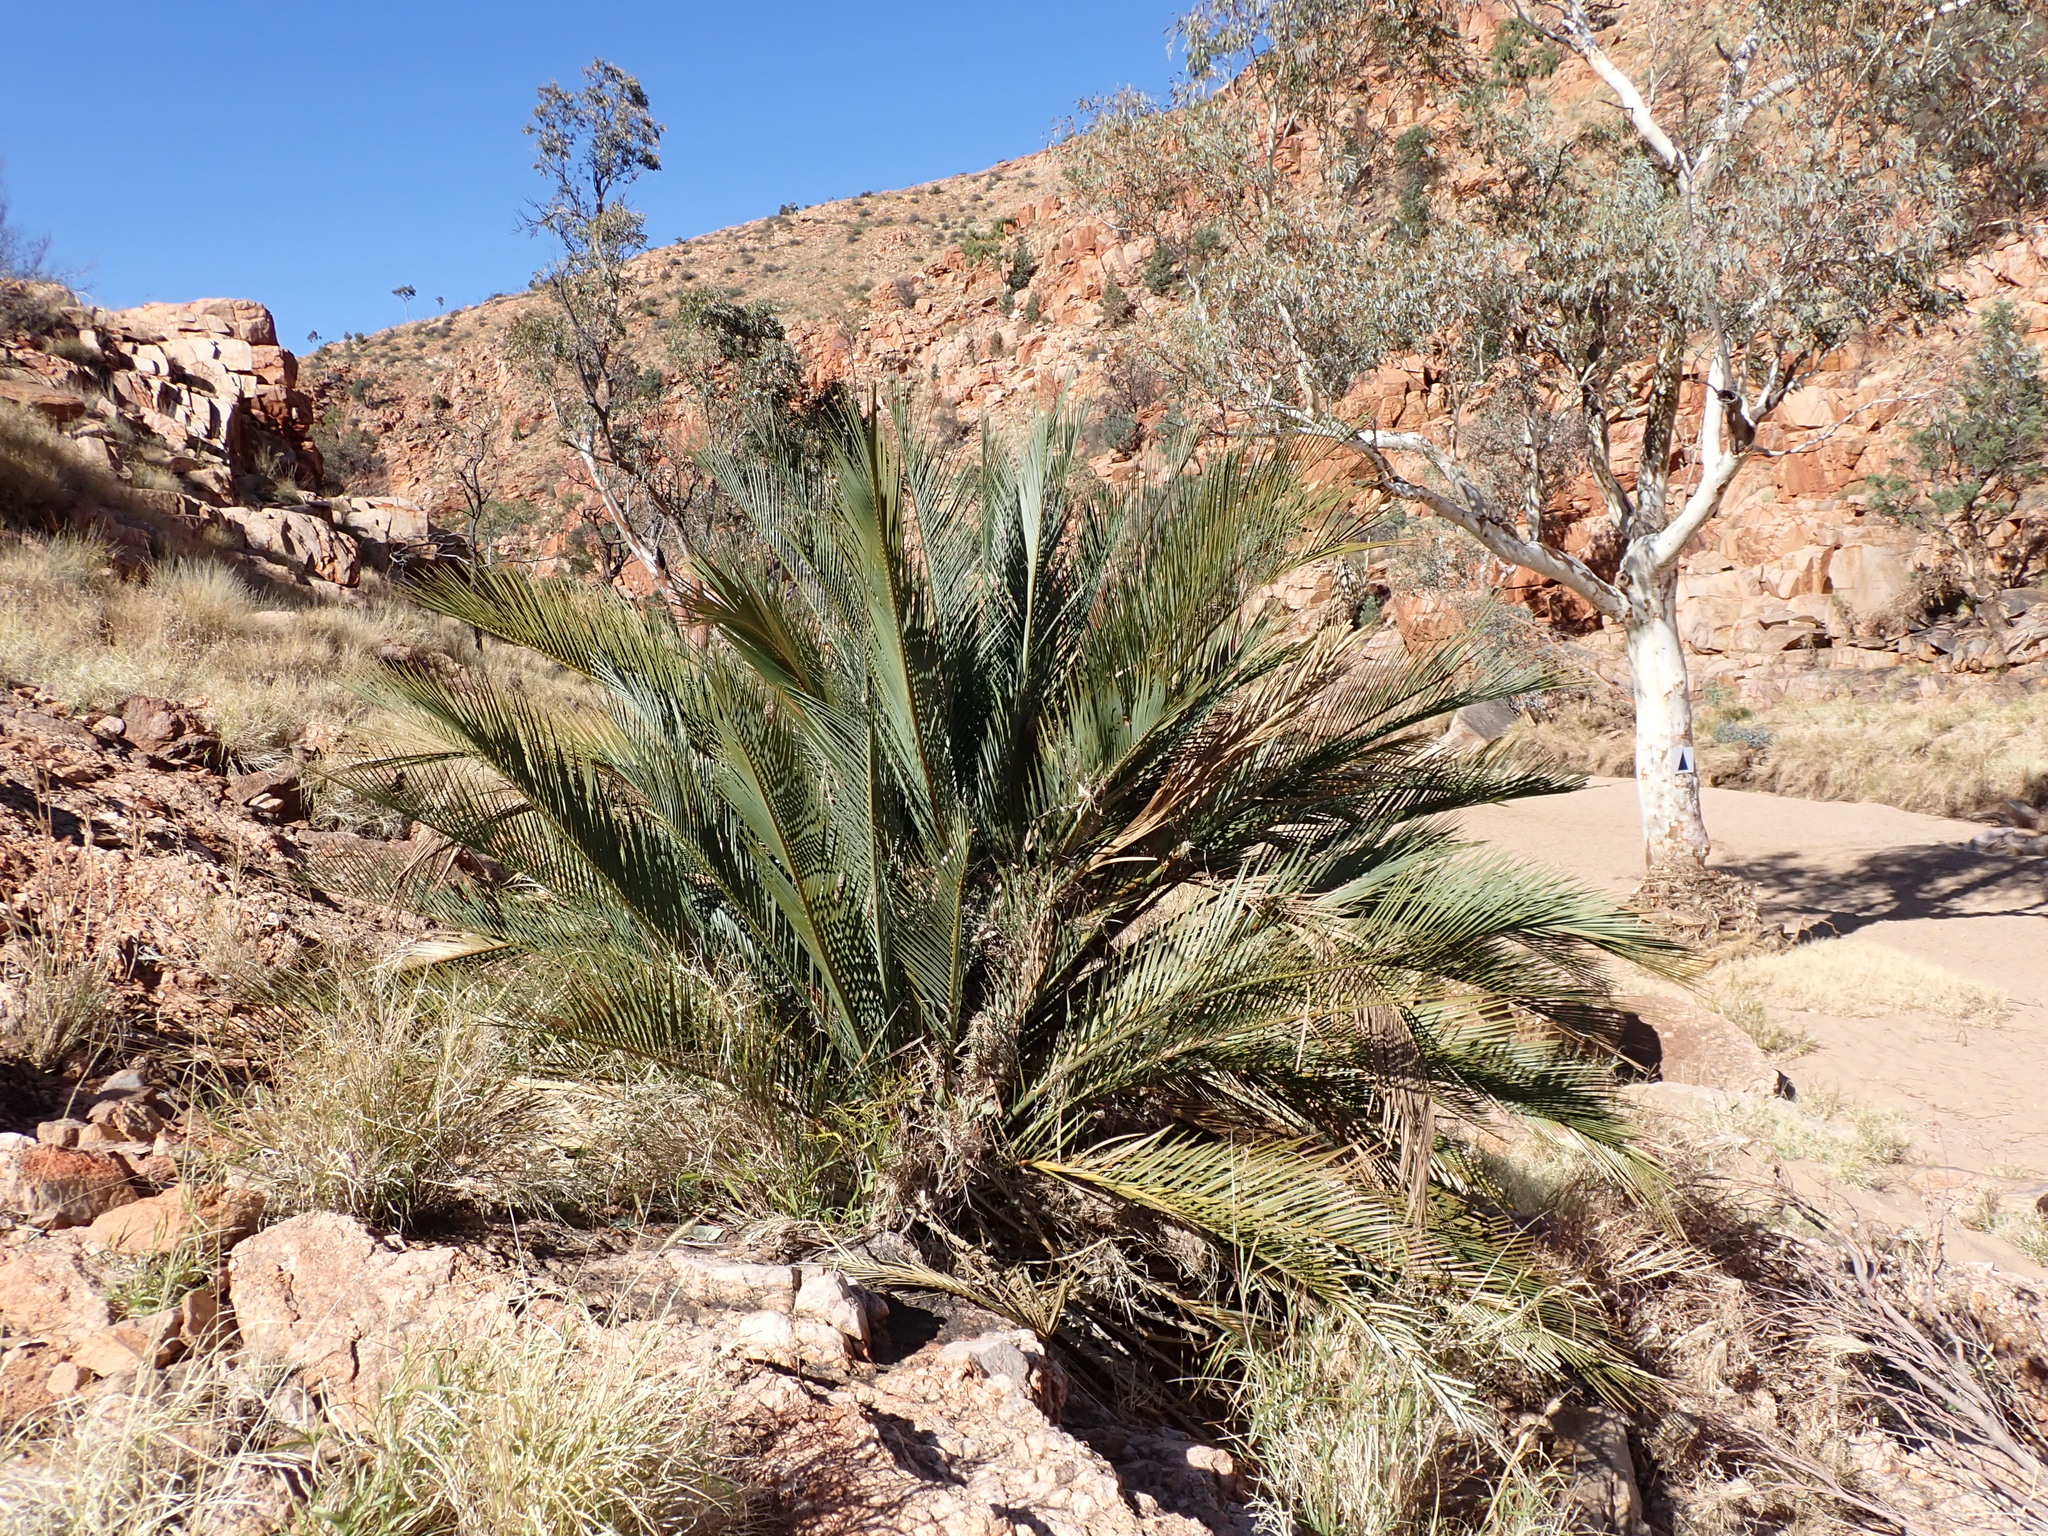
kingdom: Plantae
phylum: Tracheophyta
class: Cycadopsida
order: Cycadales
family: Zamiaceae
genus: Macrozamia
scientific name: Macrozamia macdonnellii
